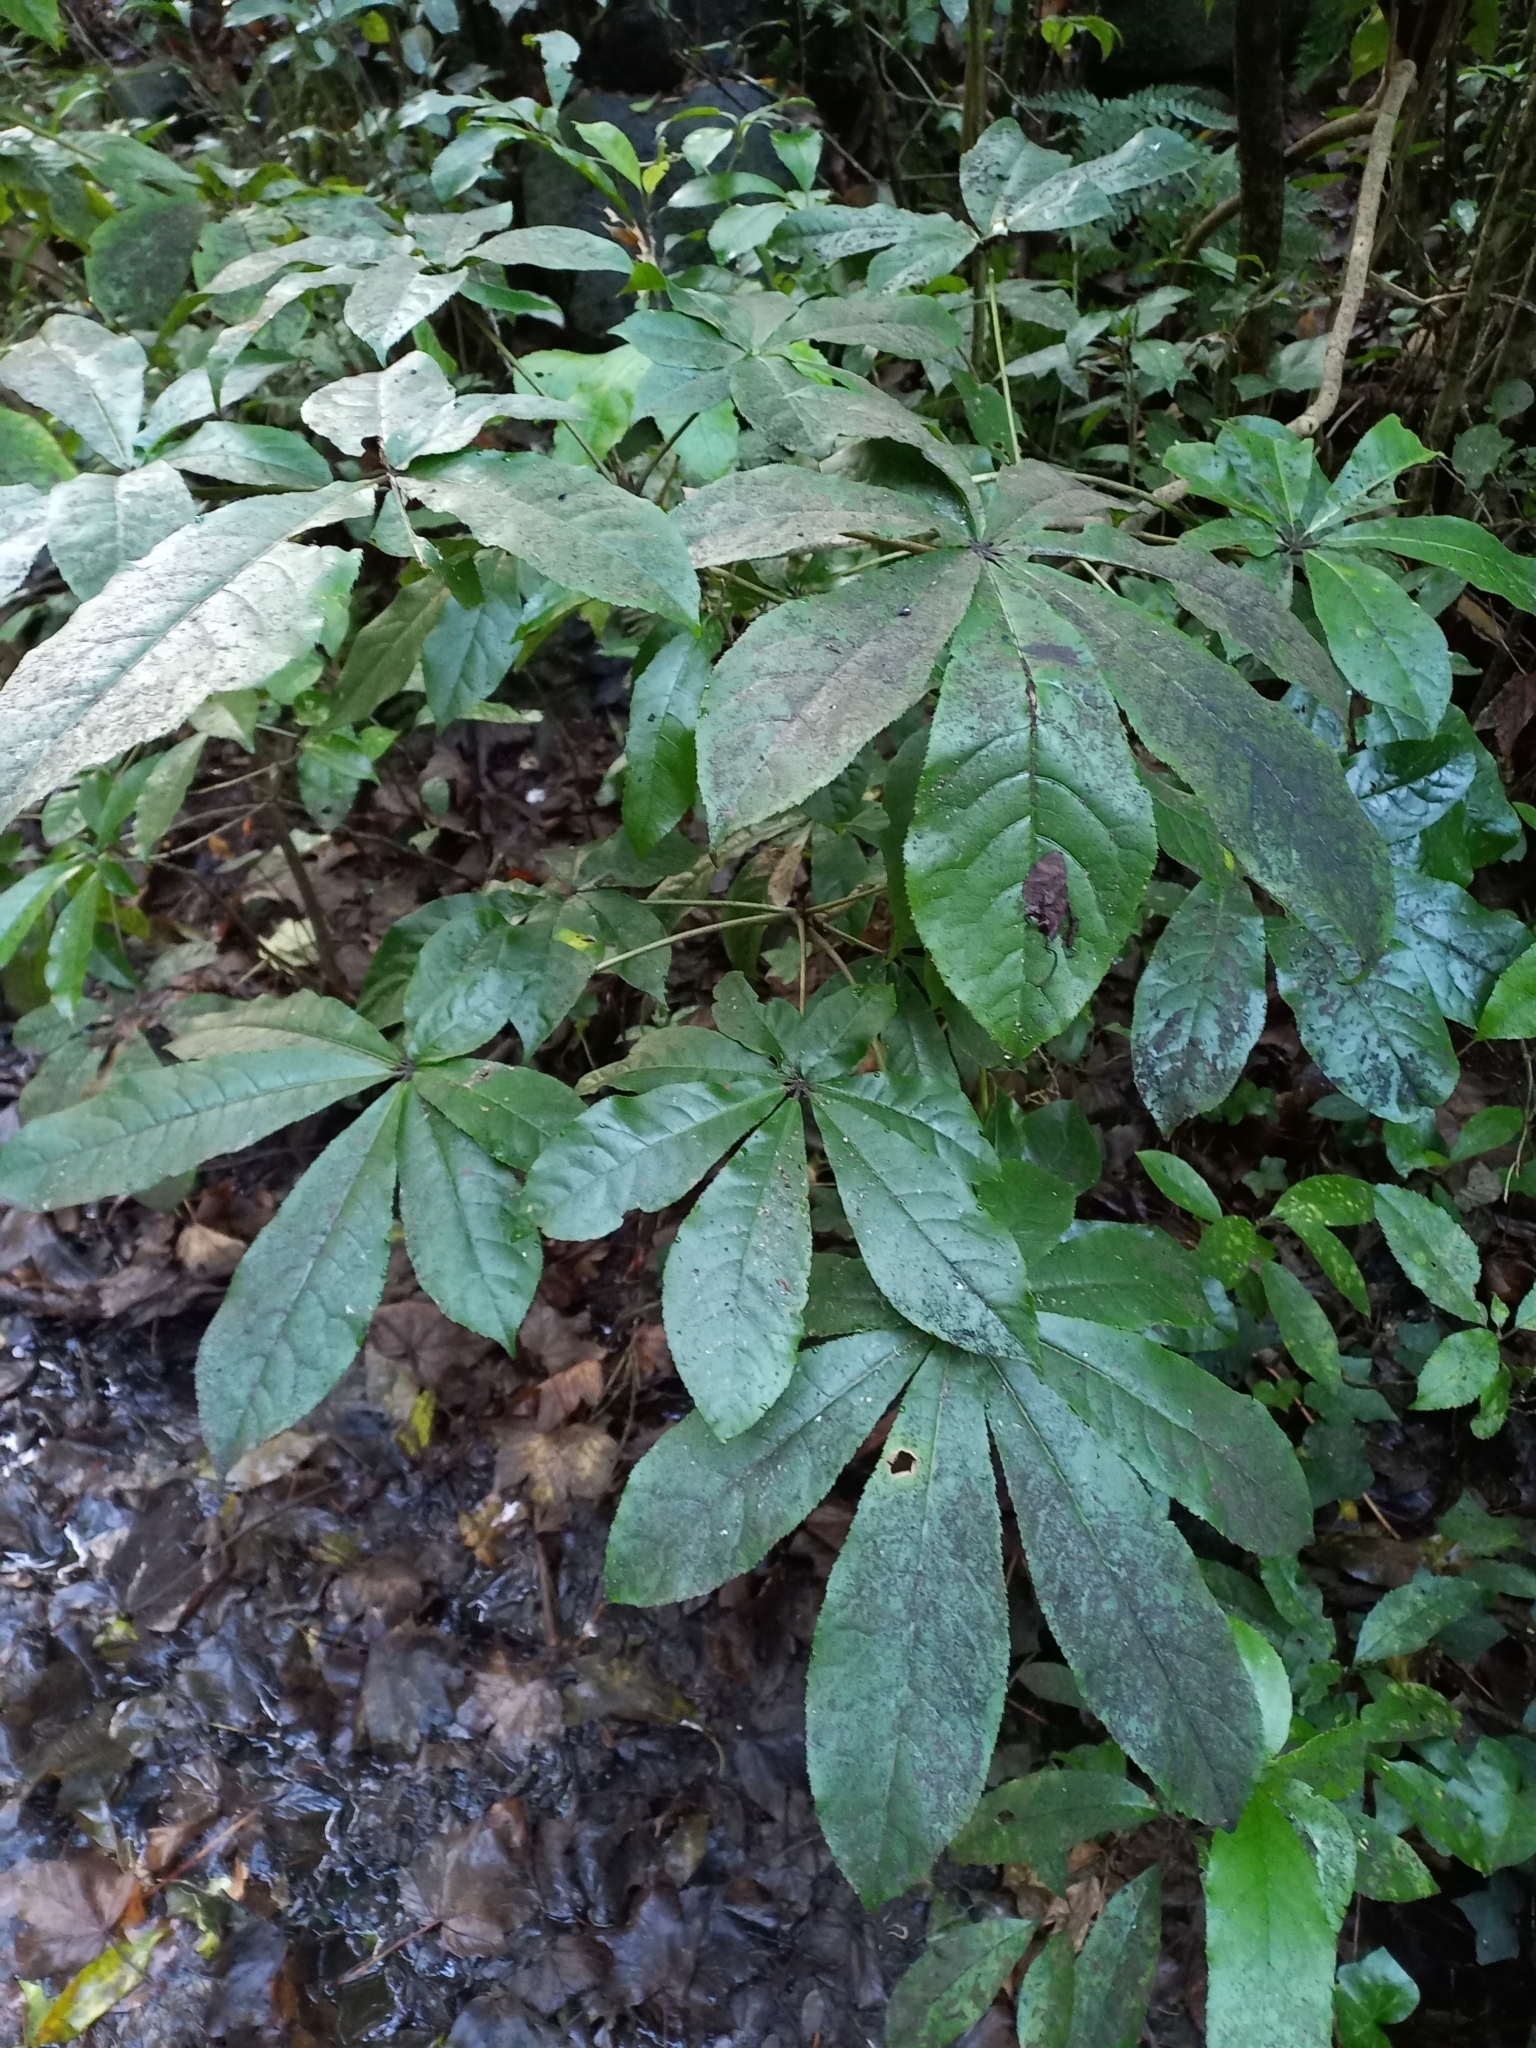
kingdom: Plantae
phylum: Tracheophyta
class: Magnoliopsida
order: Apiales
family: Araliaceae
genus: Schefflera
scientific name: Schefflera digitata
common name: Pate
